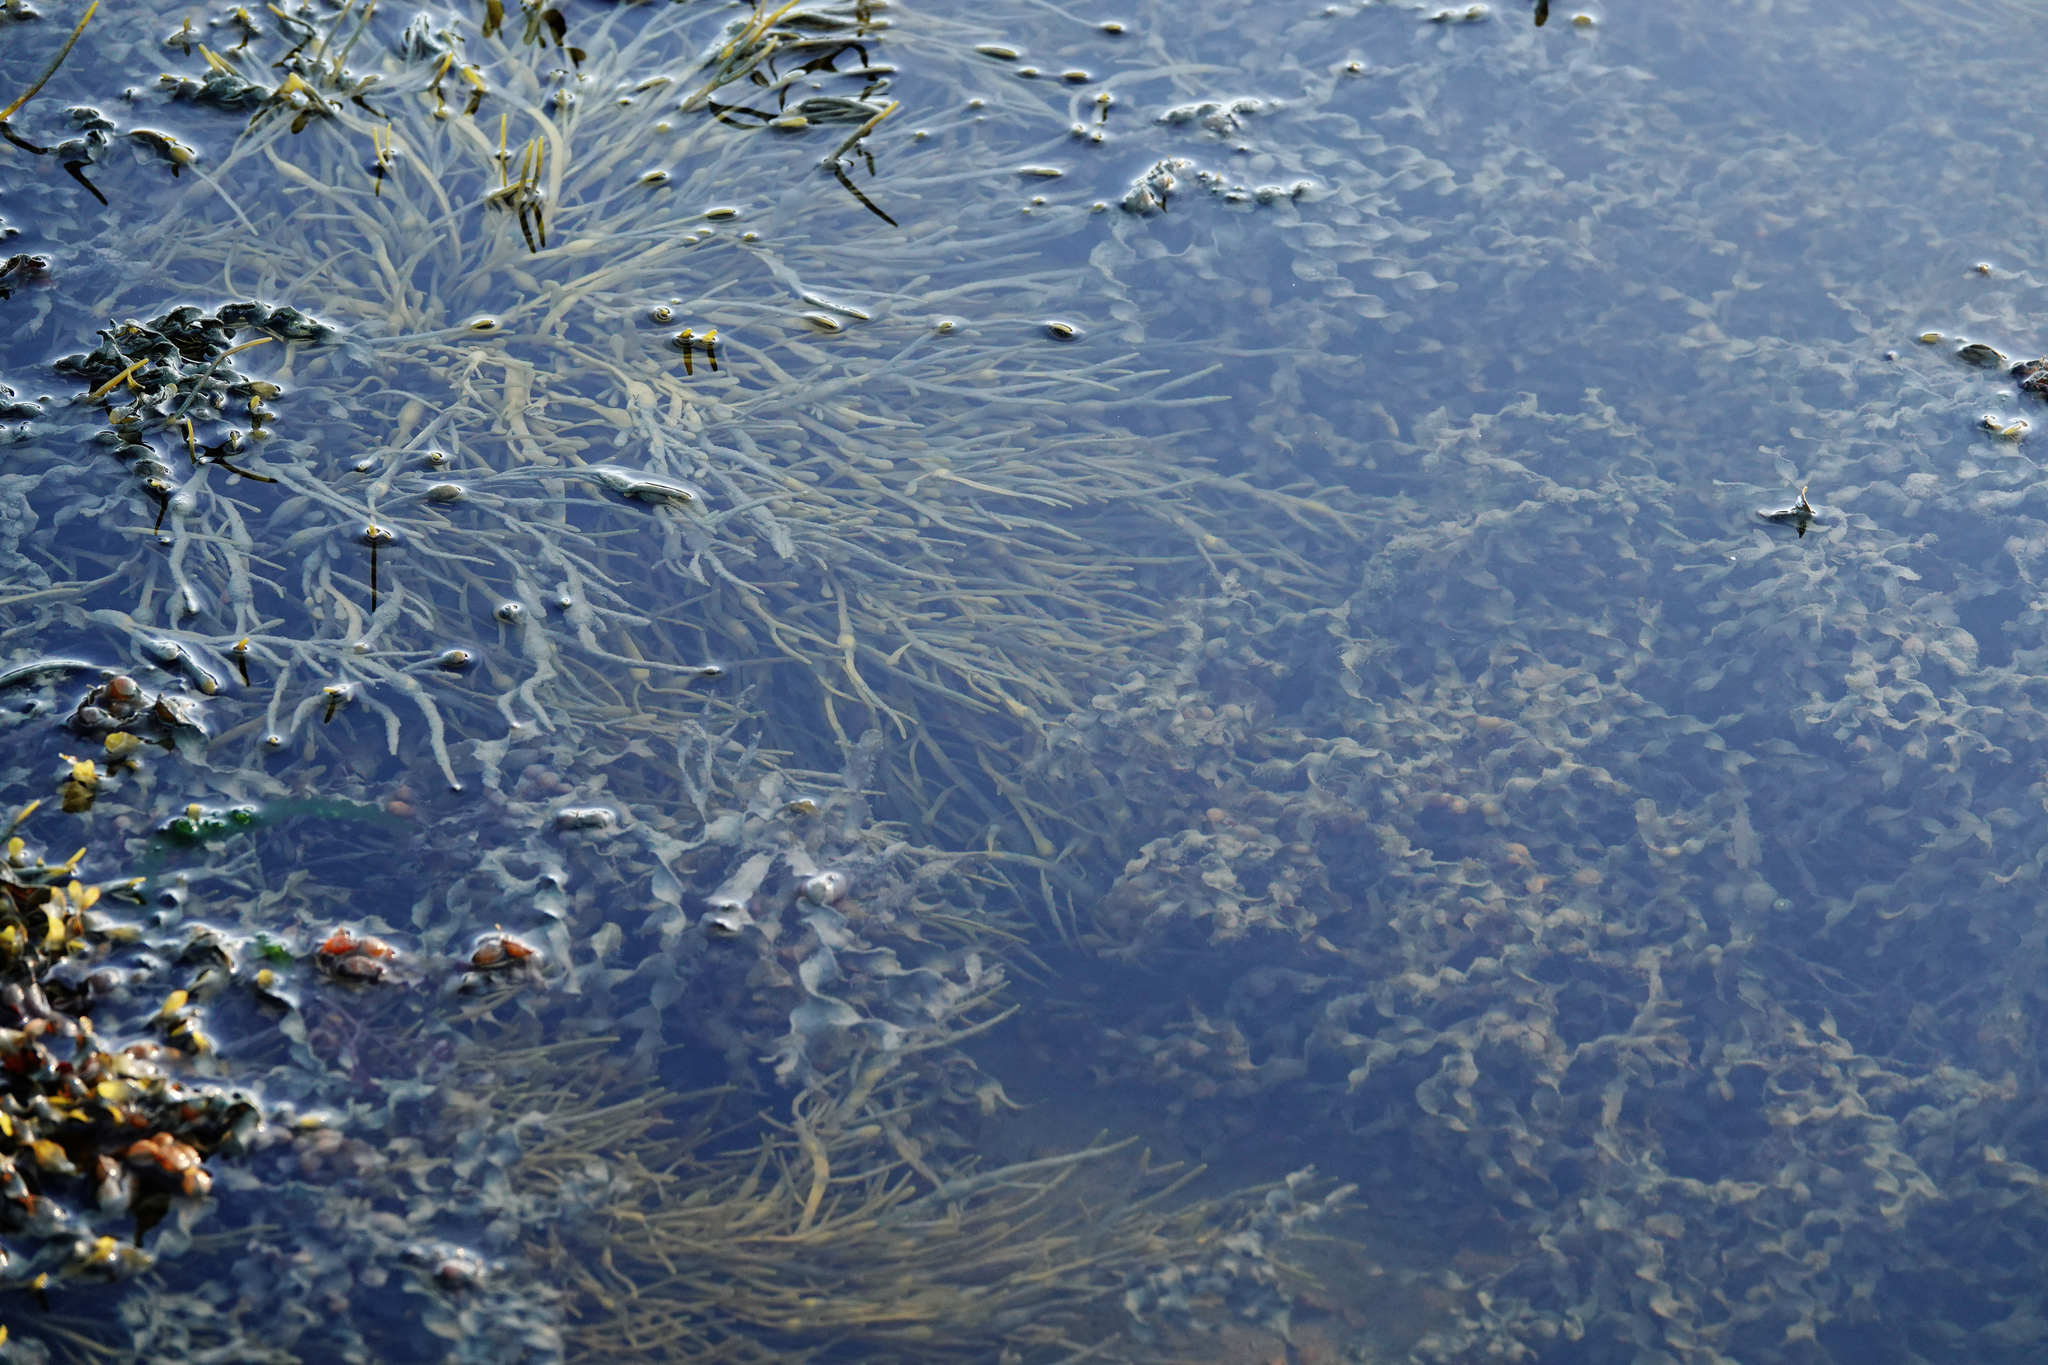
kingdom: Chromista
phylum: Ochrophyta
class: Phaeophyceae
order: Fucales
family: Fucaceae
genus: Ascophyllum
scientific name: Ascophyllum nodosum
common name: Knotted wrack
